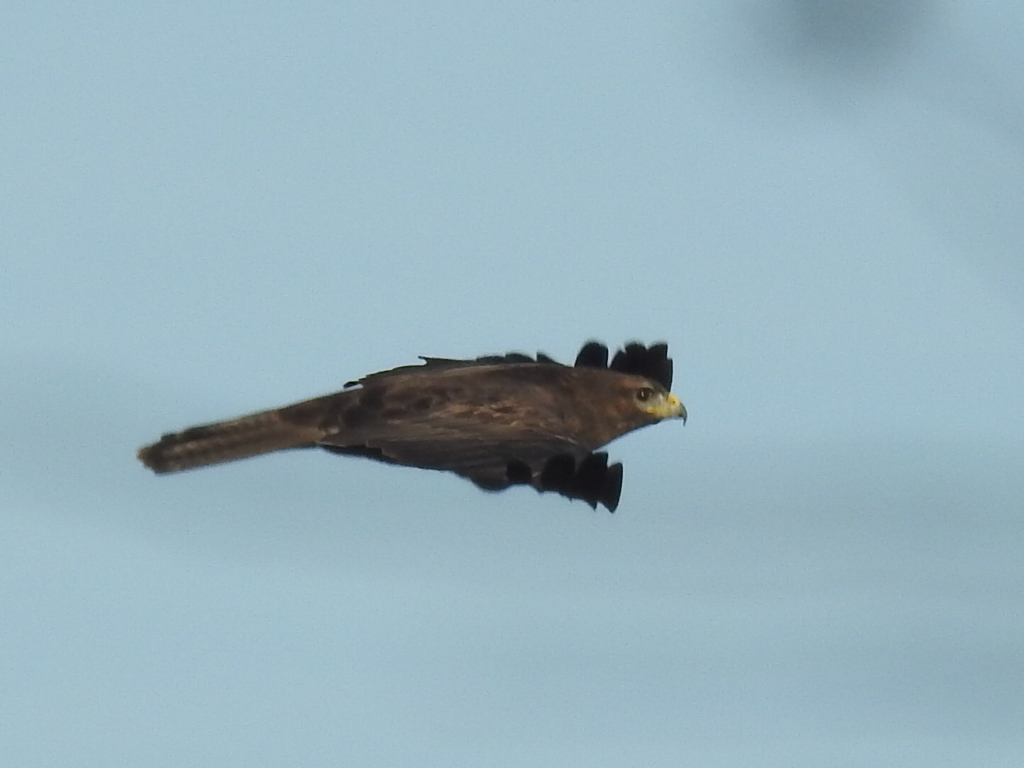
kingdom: Animalia
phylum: Chordata
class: Aves
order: Accipitriformes
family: Accipitridae
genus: Buteo
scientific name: Buteo buteo
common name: Common buzzard
